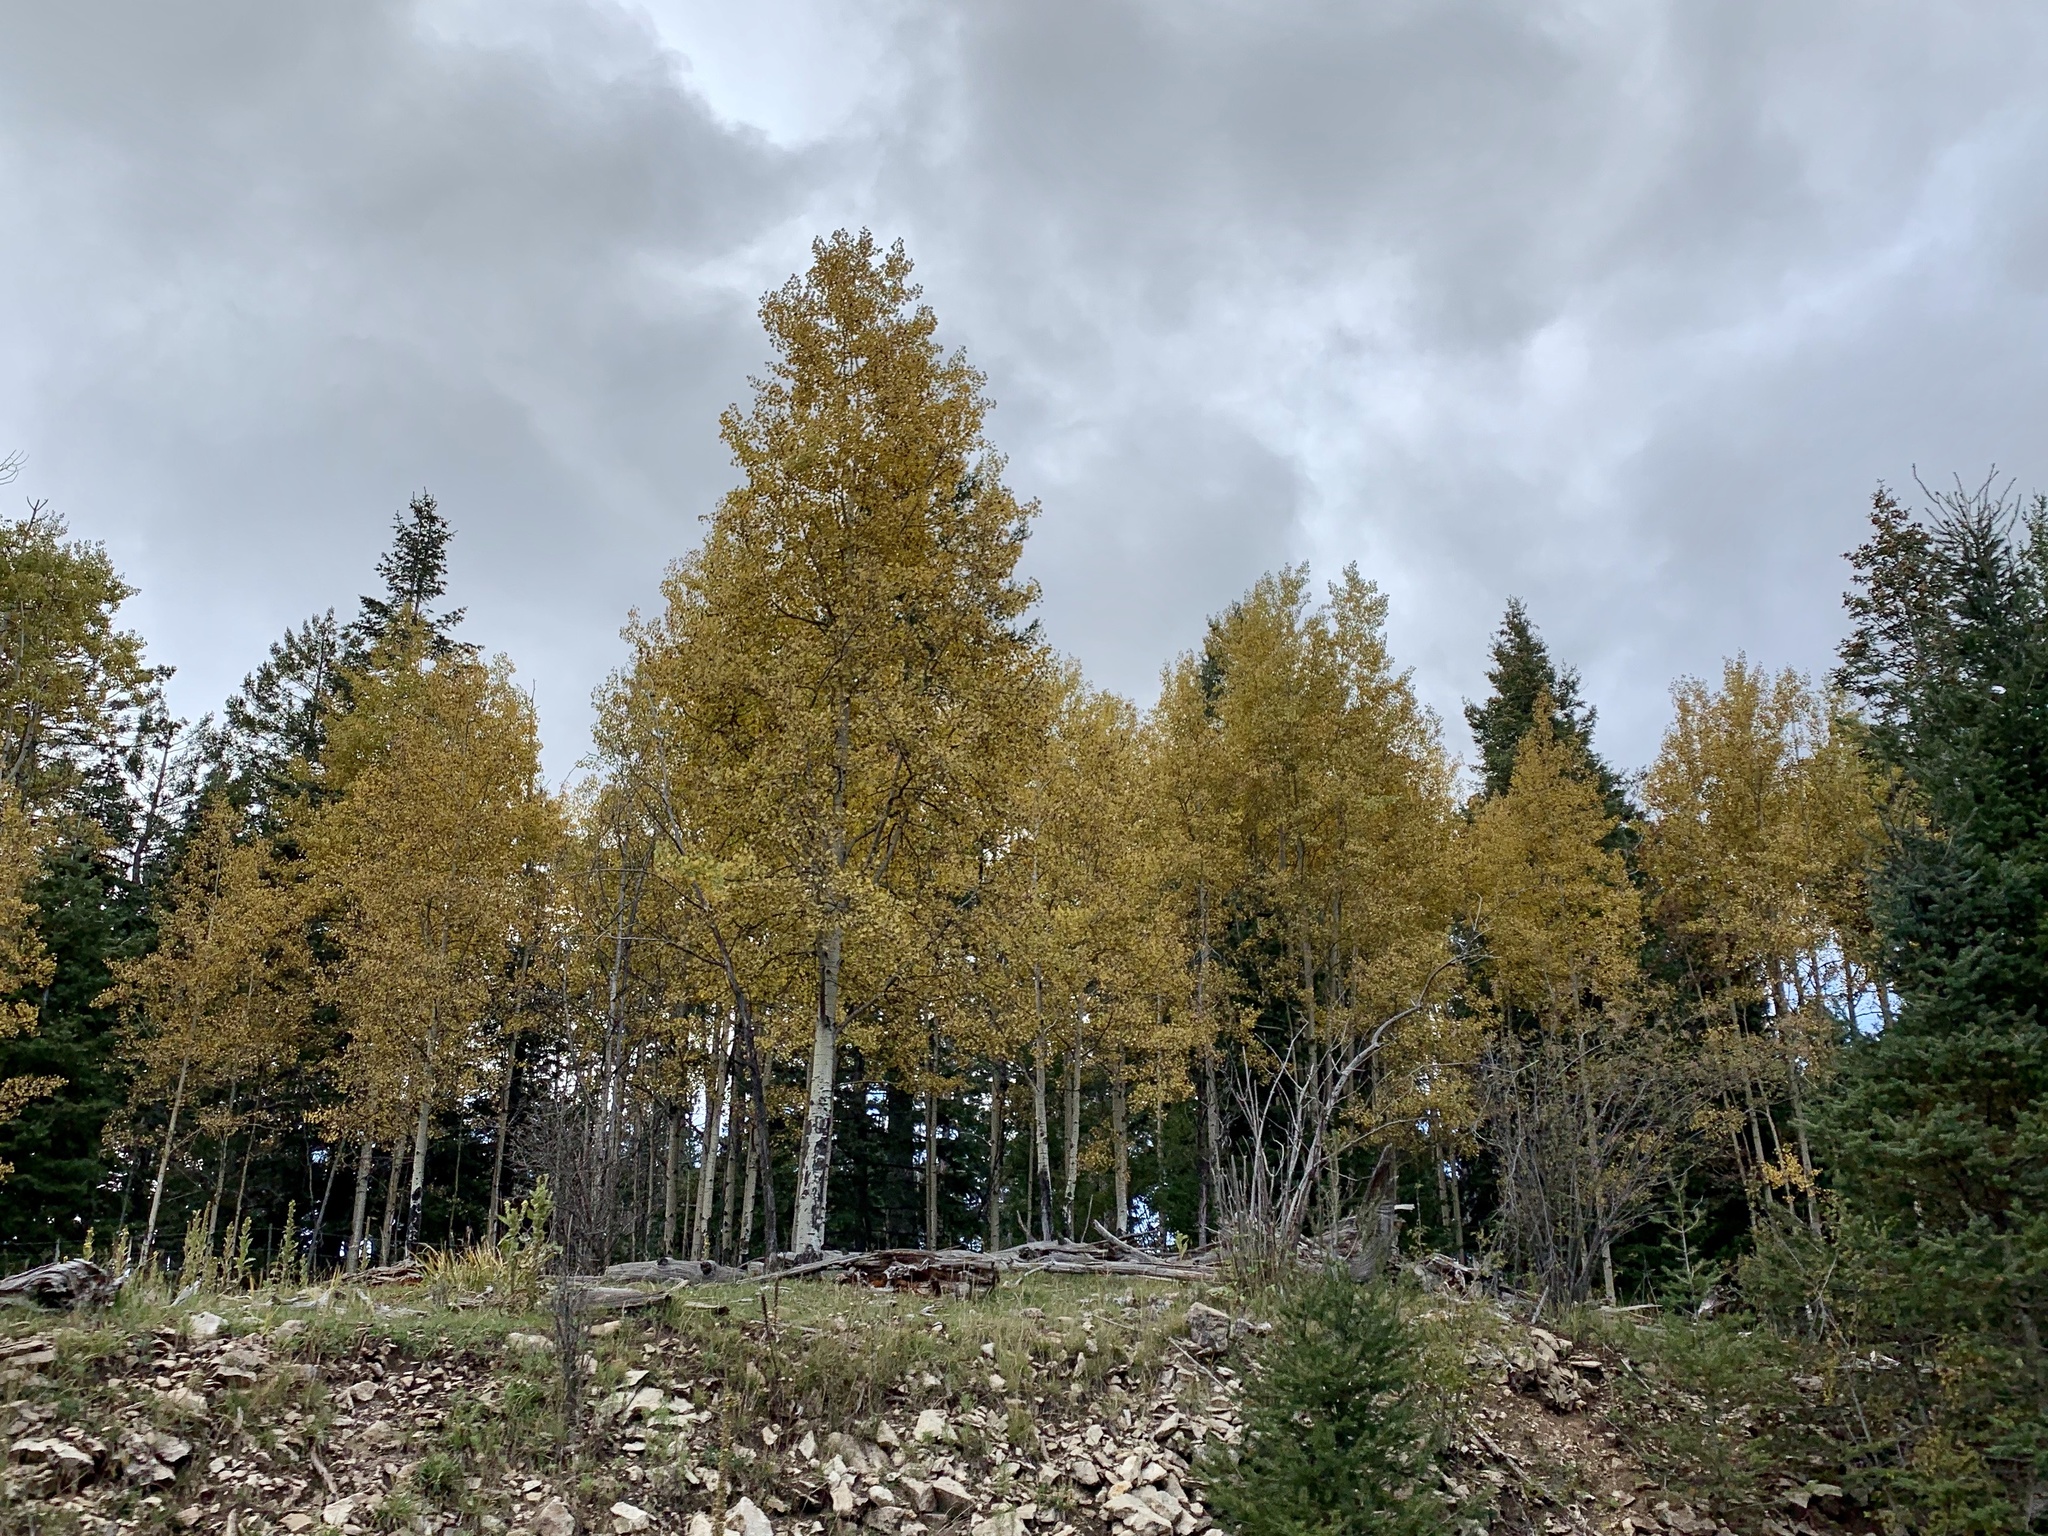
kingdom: Plantae
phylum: Tracheophyta
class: Magnoliopsida
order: Malpighiales
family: Salicaceae
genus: Populus
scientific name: Populus tremuloides
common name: Quaking aspen
